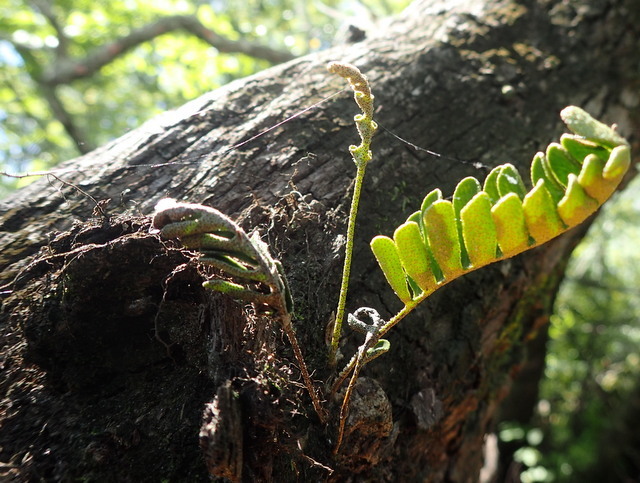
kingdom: Plantae
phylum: Tracheophyta
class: Polypodiopsida
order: Polypodiales
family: Polypodiaceae
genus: Pleopeltis
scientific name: Pleopeltis michauxiana
